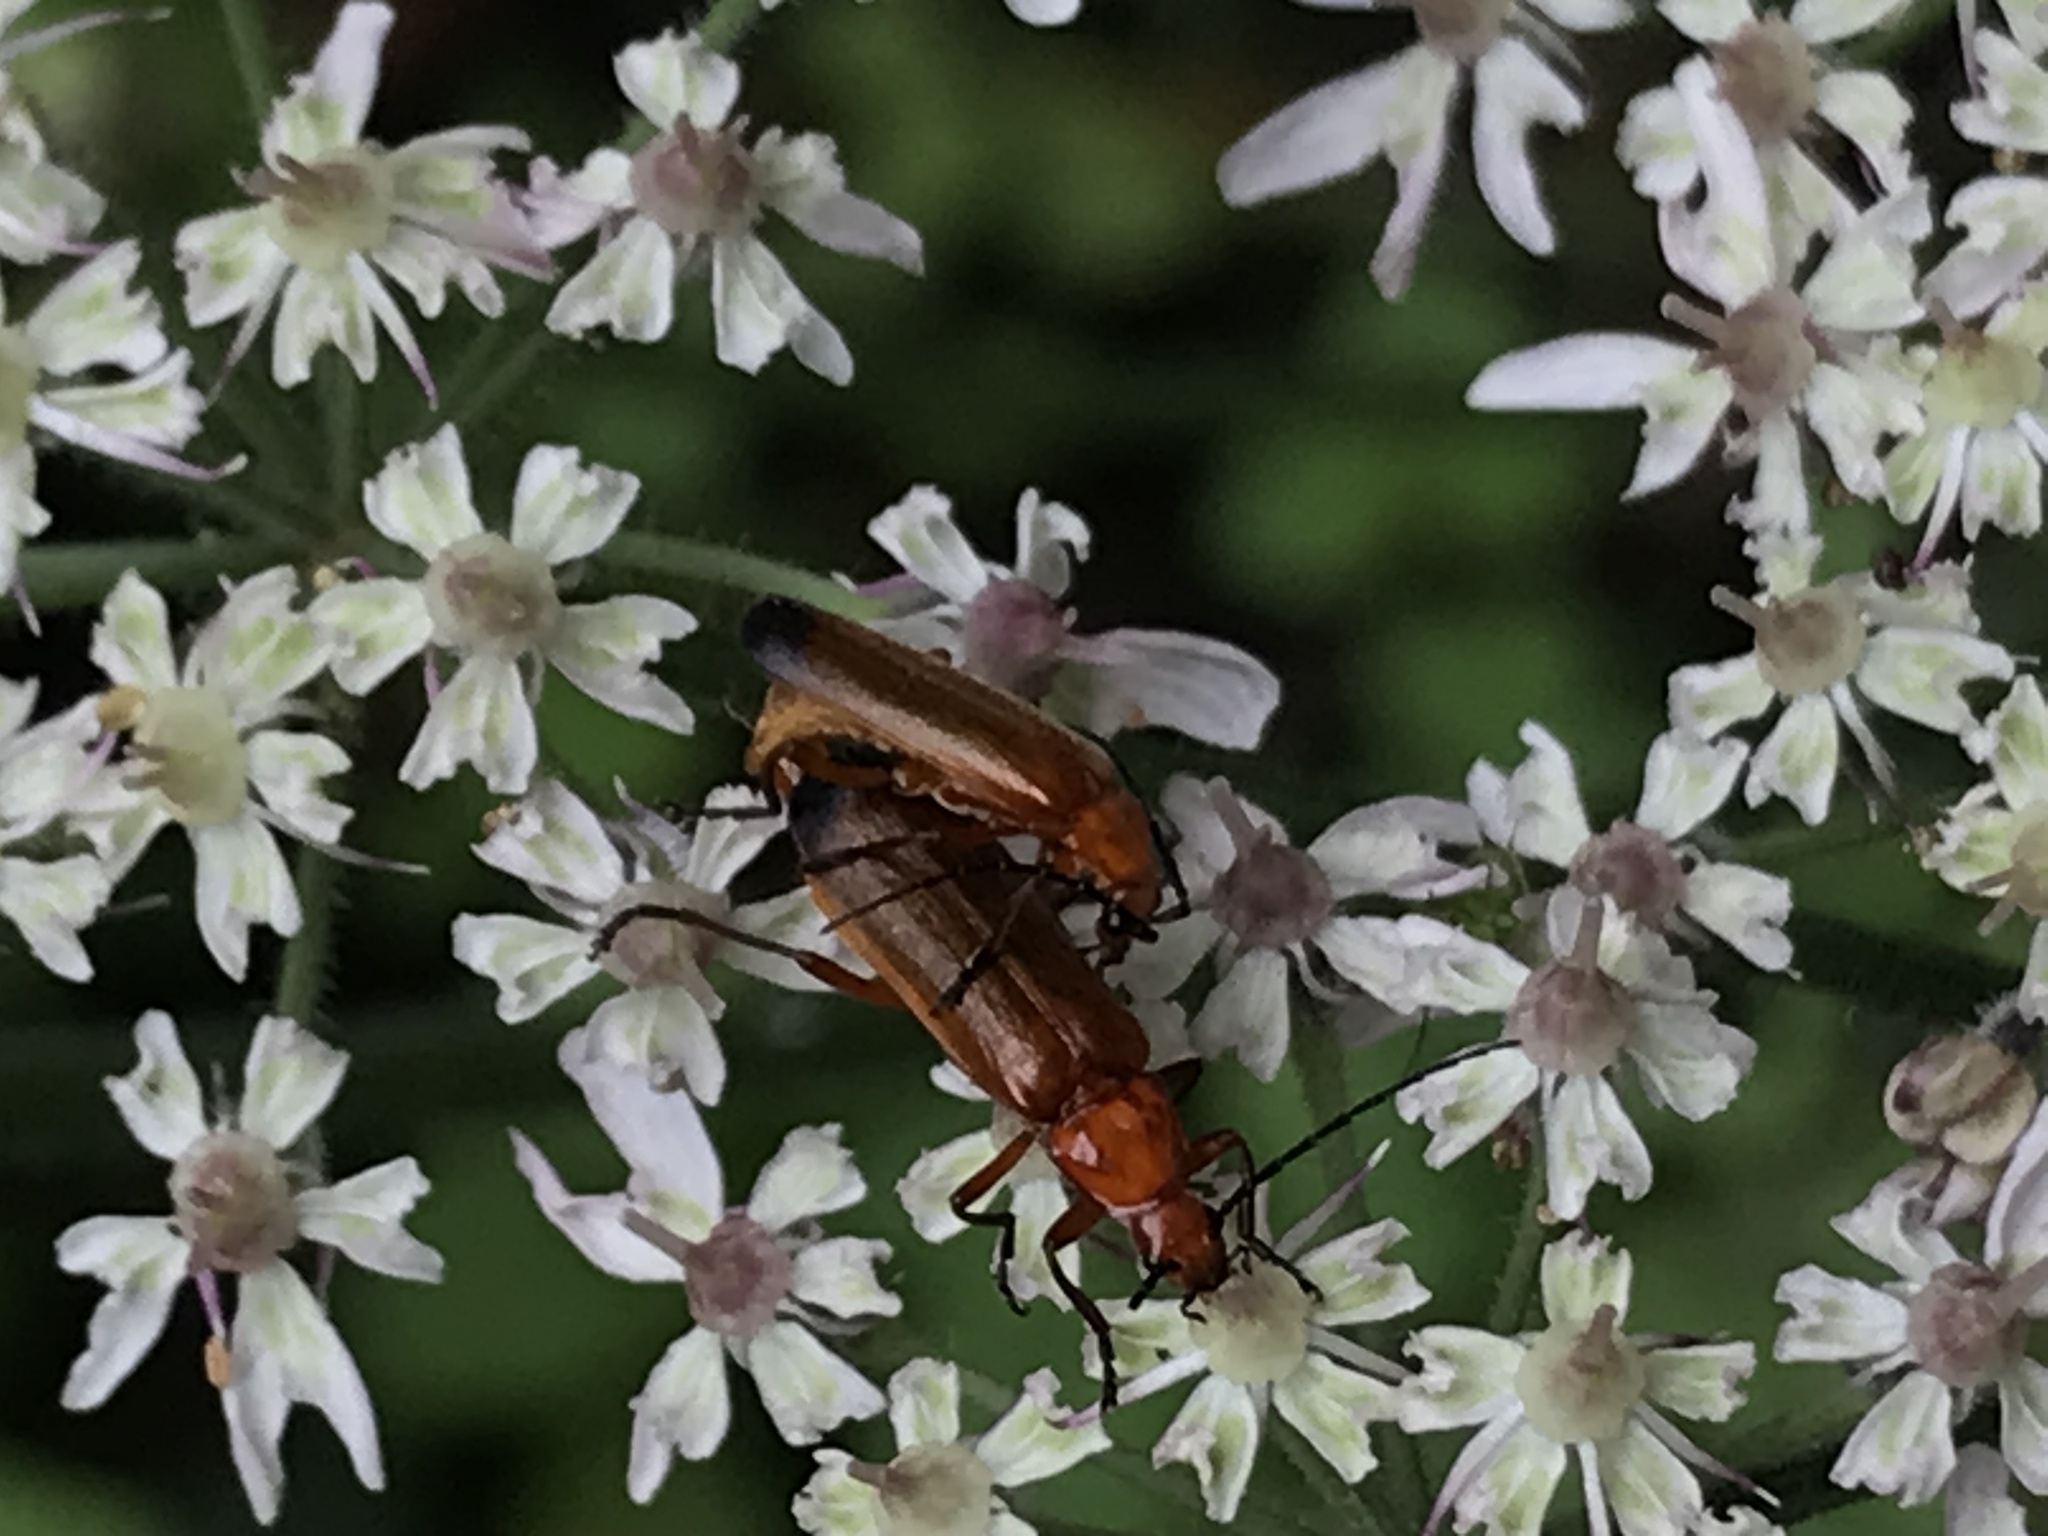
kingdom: Animalia
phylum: Arthropoda
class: Insecta
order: Coleoptera
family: Cantharidae
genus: Rhagonycha
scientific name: Rhagonycha fulva
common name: Common red soldier beetle
